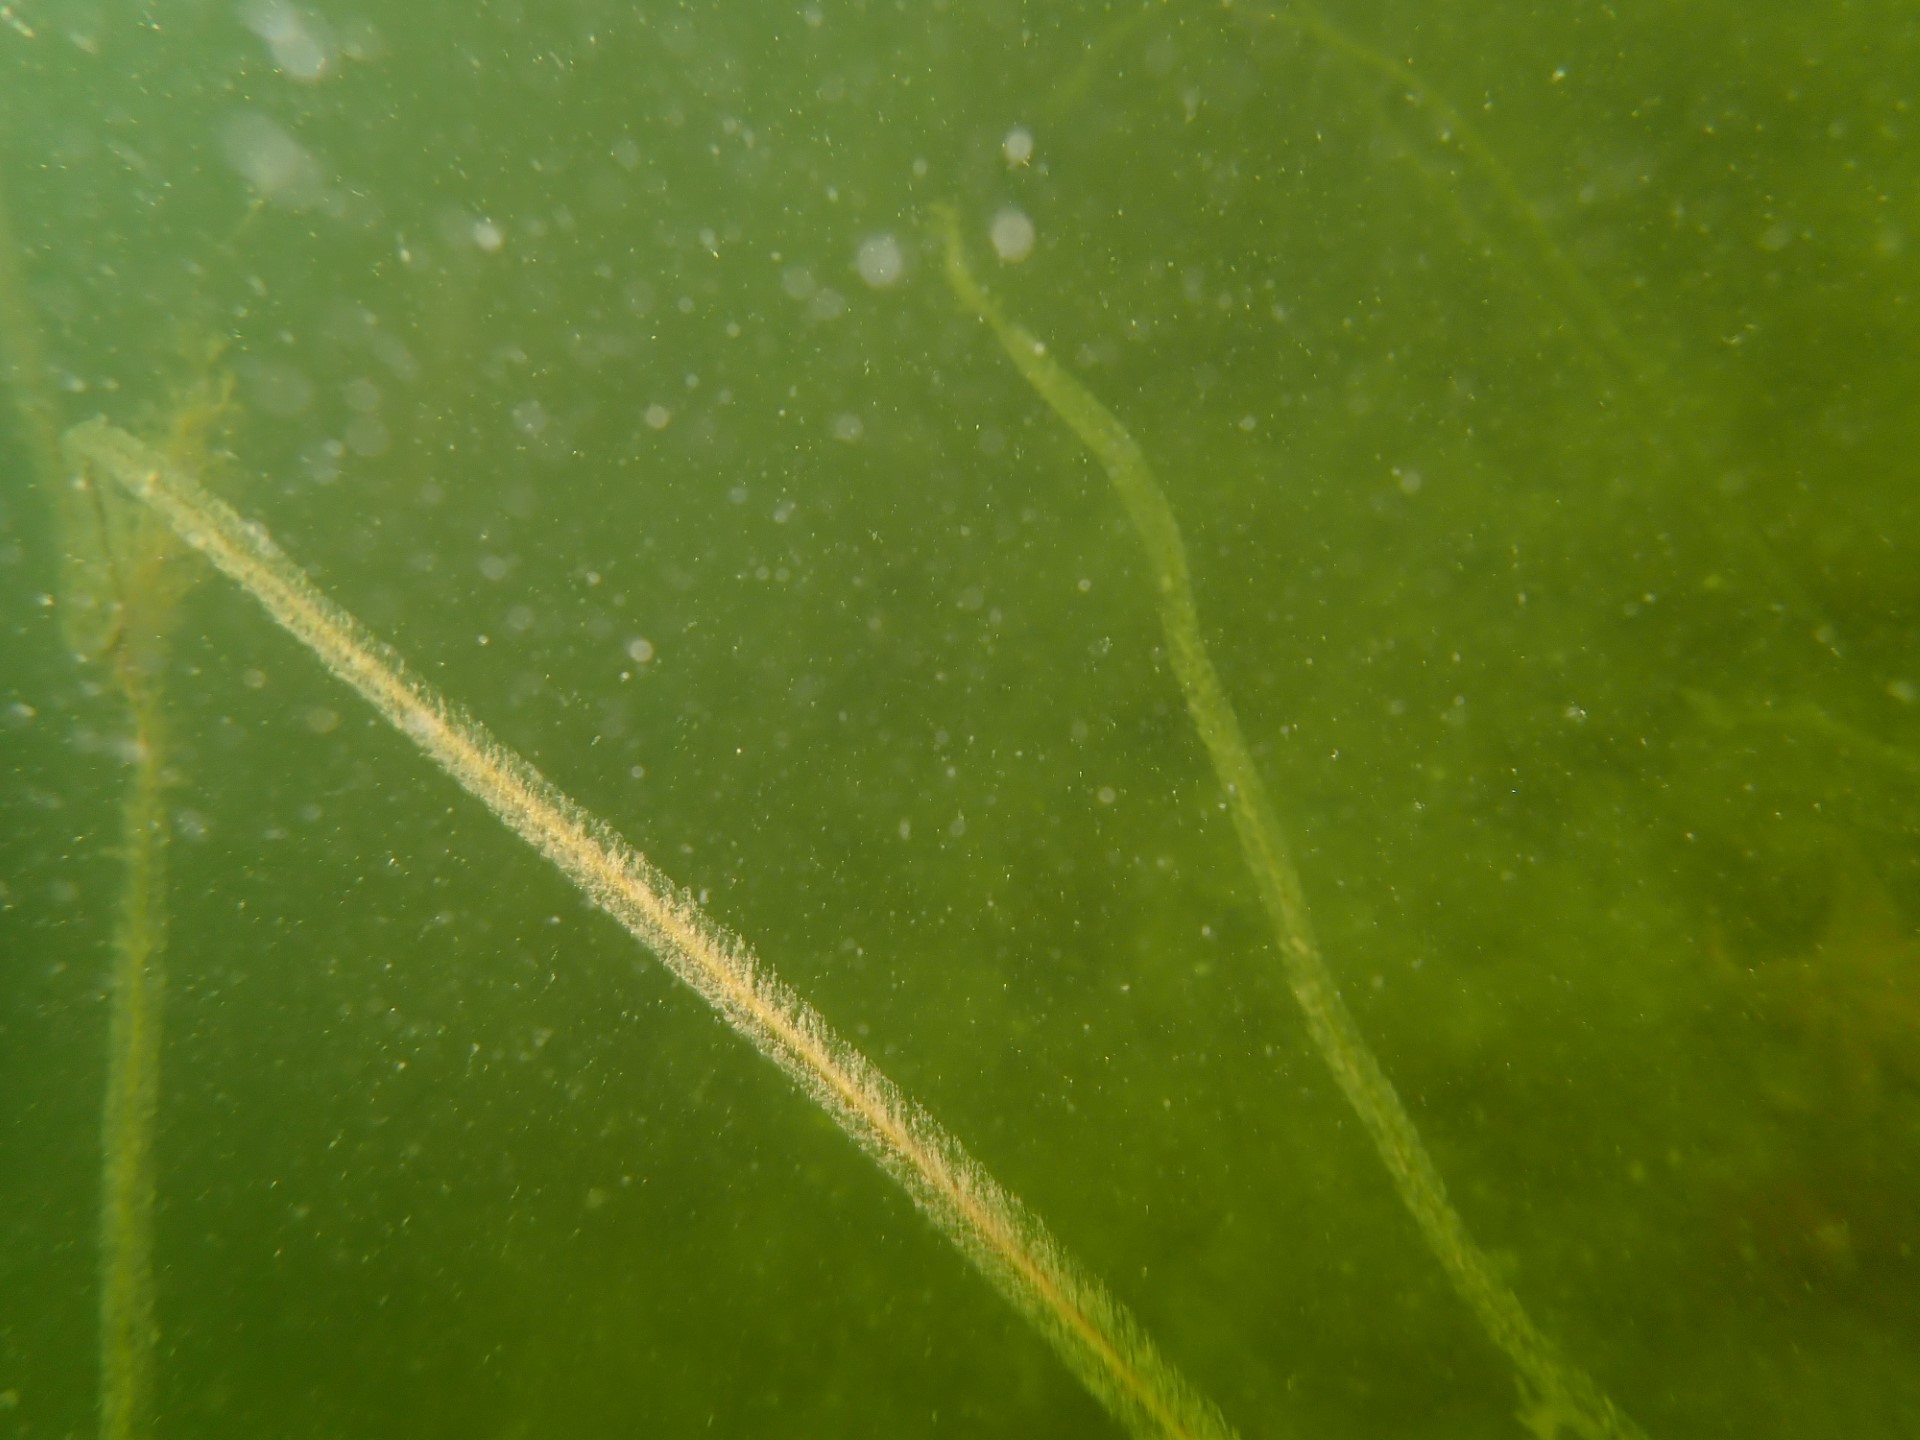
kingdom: Chromista
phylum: Ochrophyta
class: Phaeophyceae
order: Tilopteridales
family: Halosiphonaceae
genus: Halosiphon
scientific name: Halosiphon tomentosus
